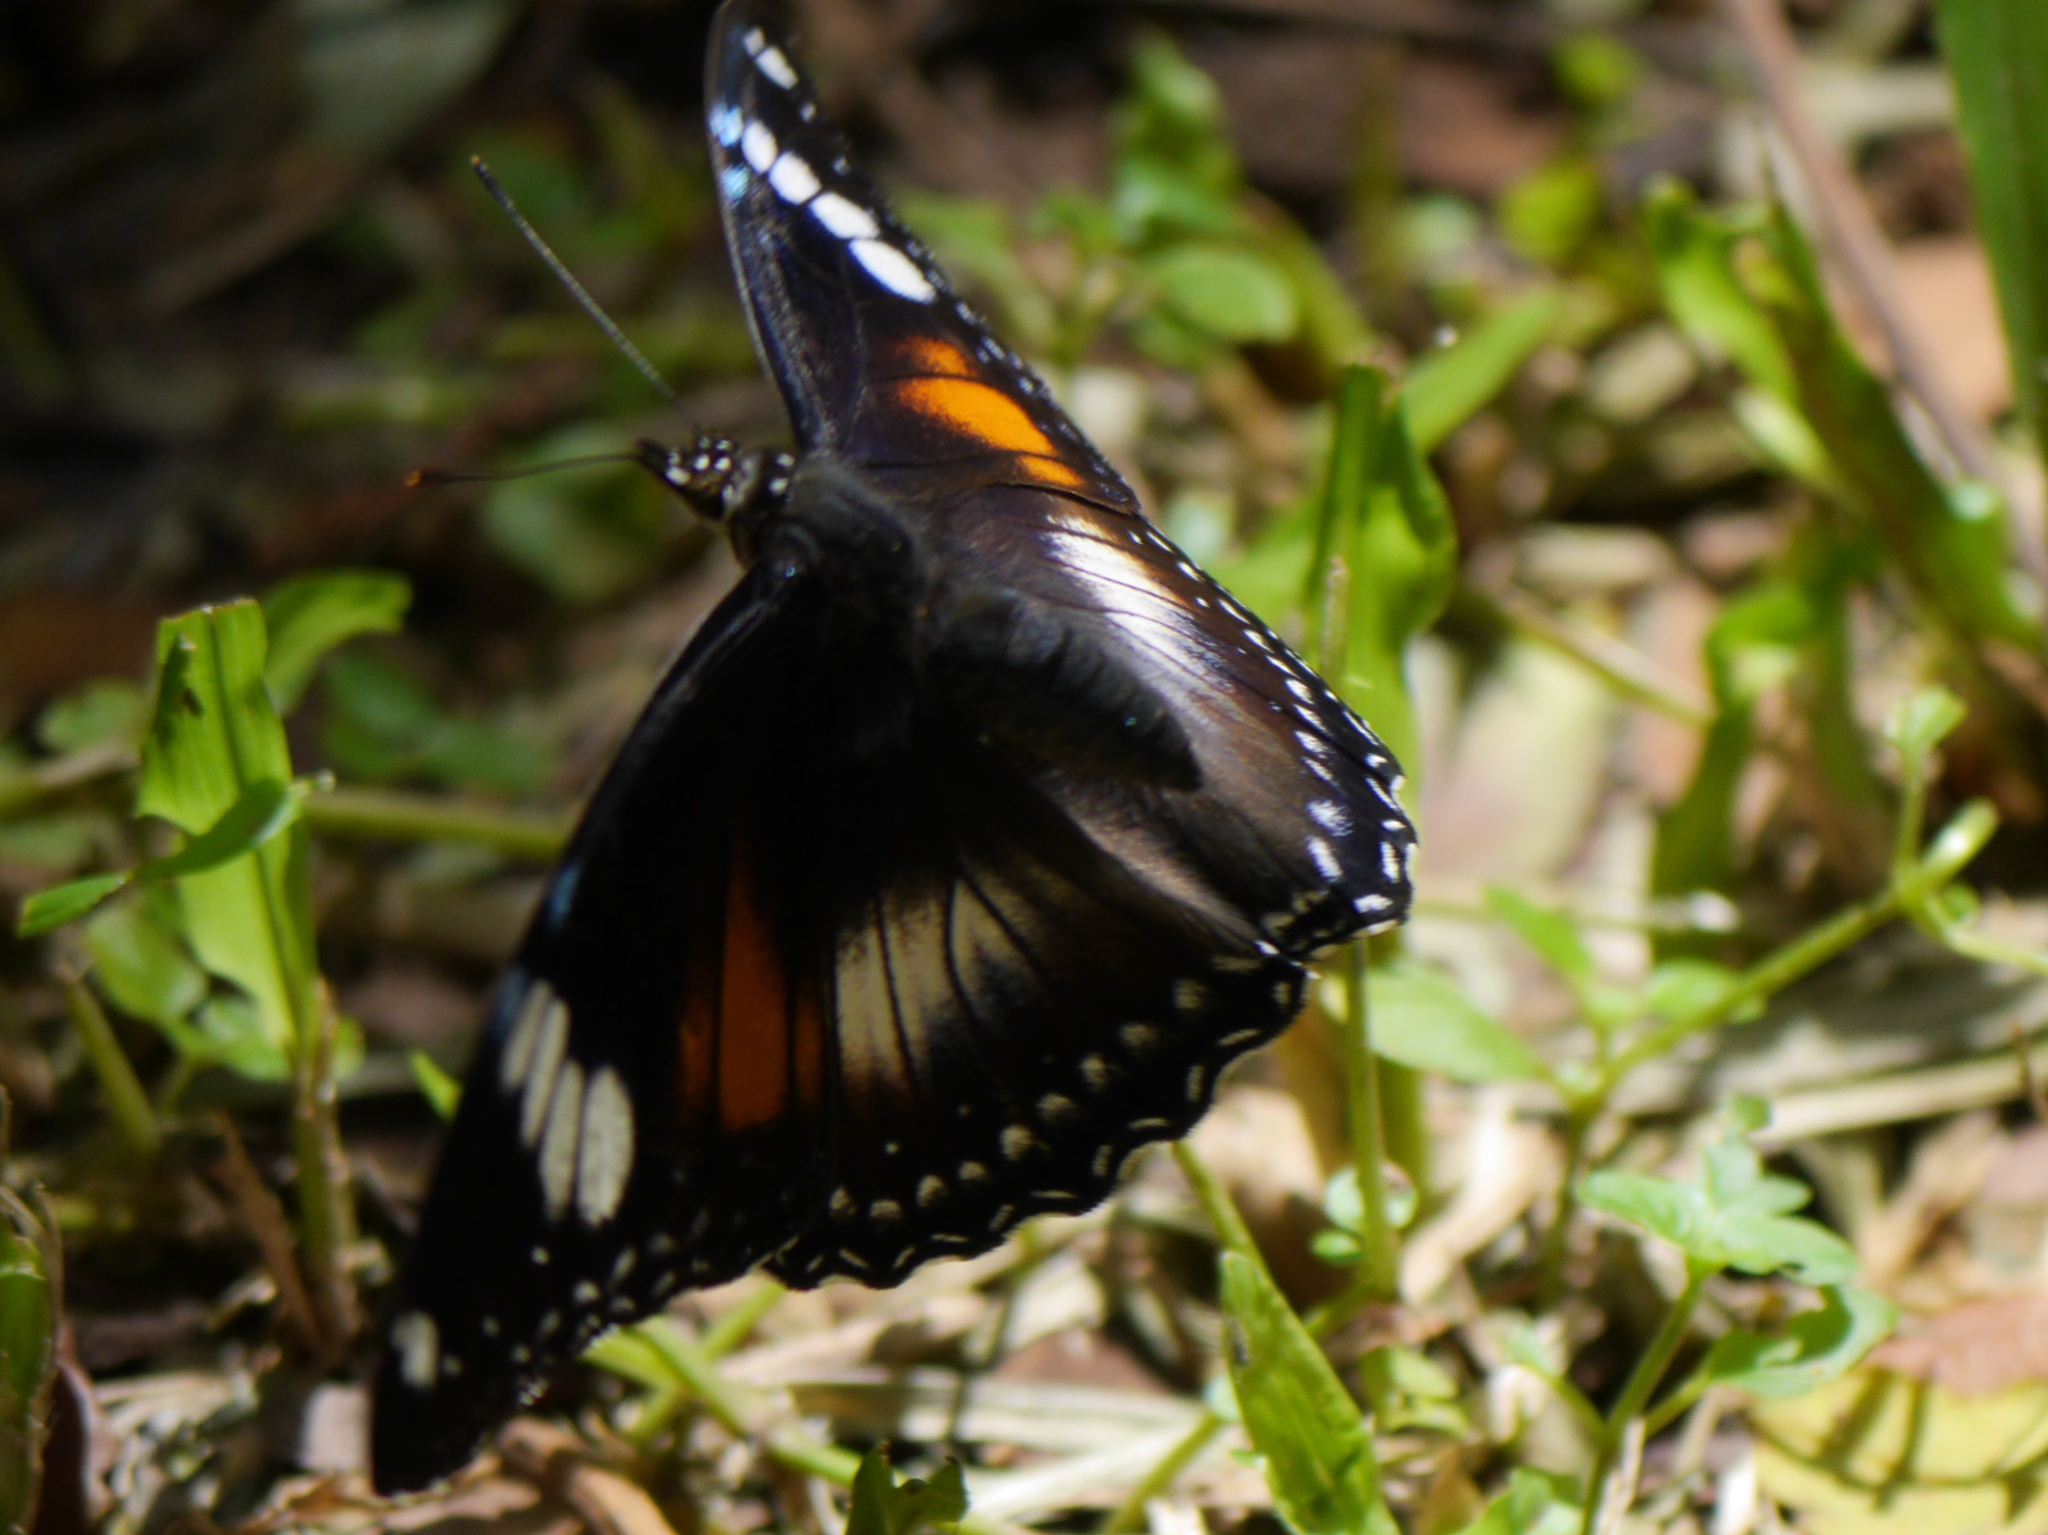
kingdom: Animalia
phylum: Arthropoda
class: Insecta
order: Lepidoptera
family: Nymphalidae
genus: Hypolimnas
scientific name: Hypolimnas bolina
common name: Great eggfly
